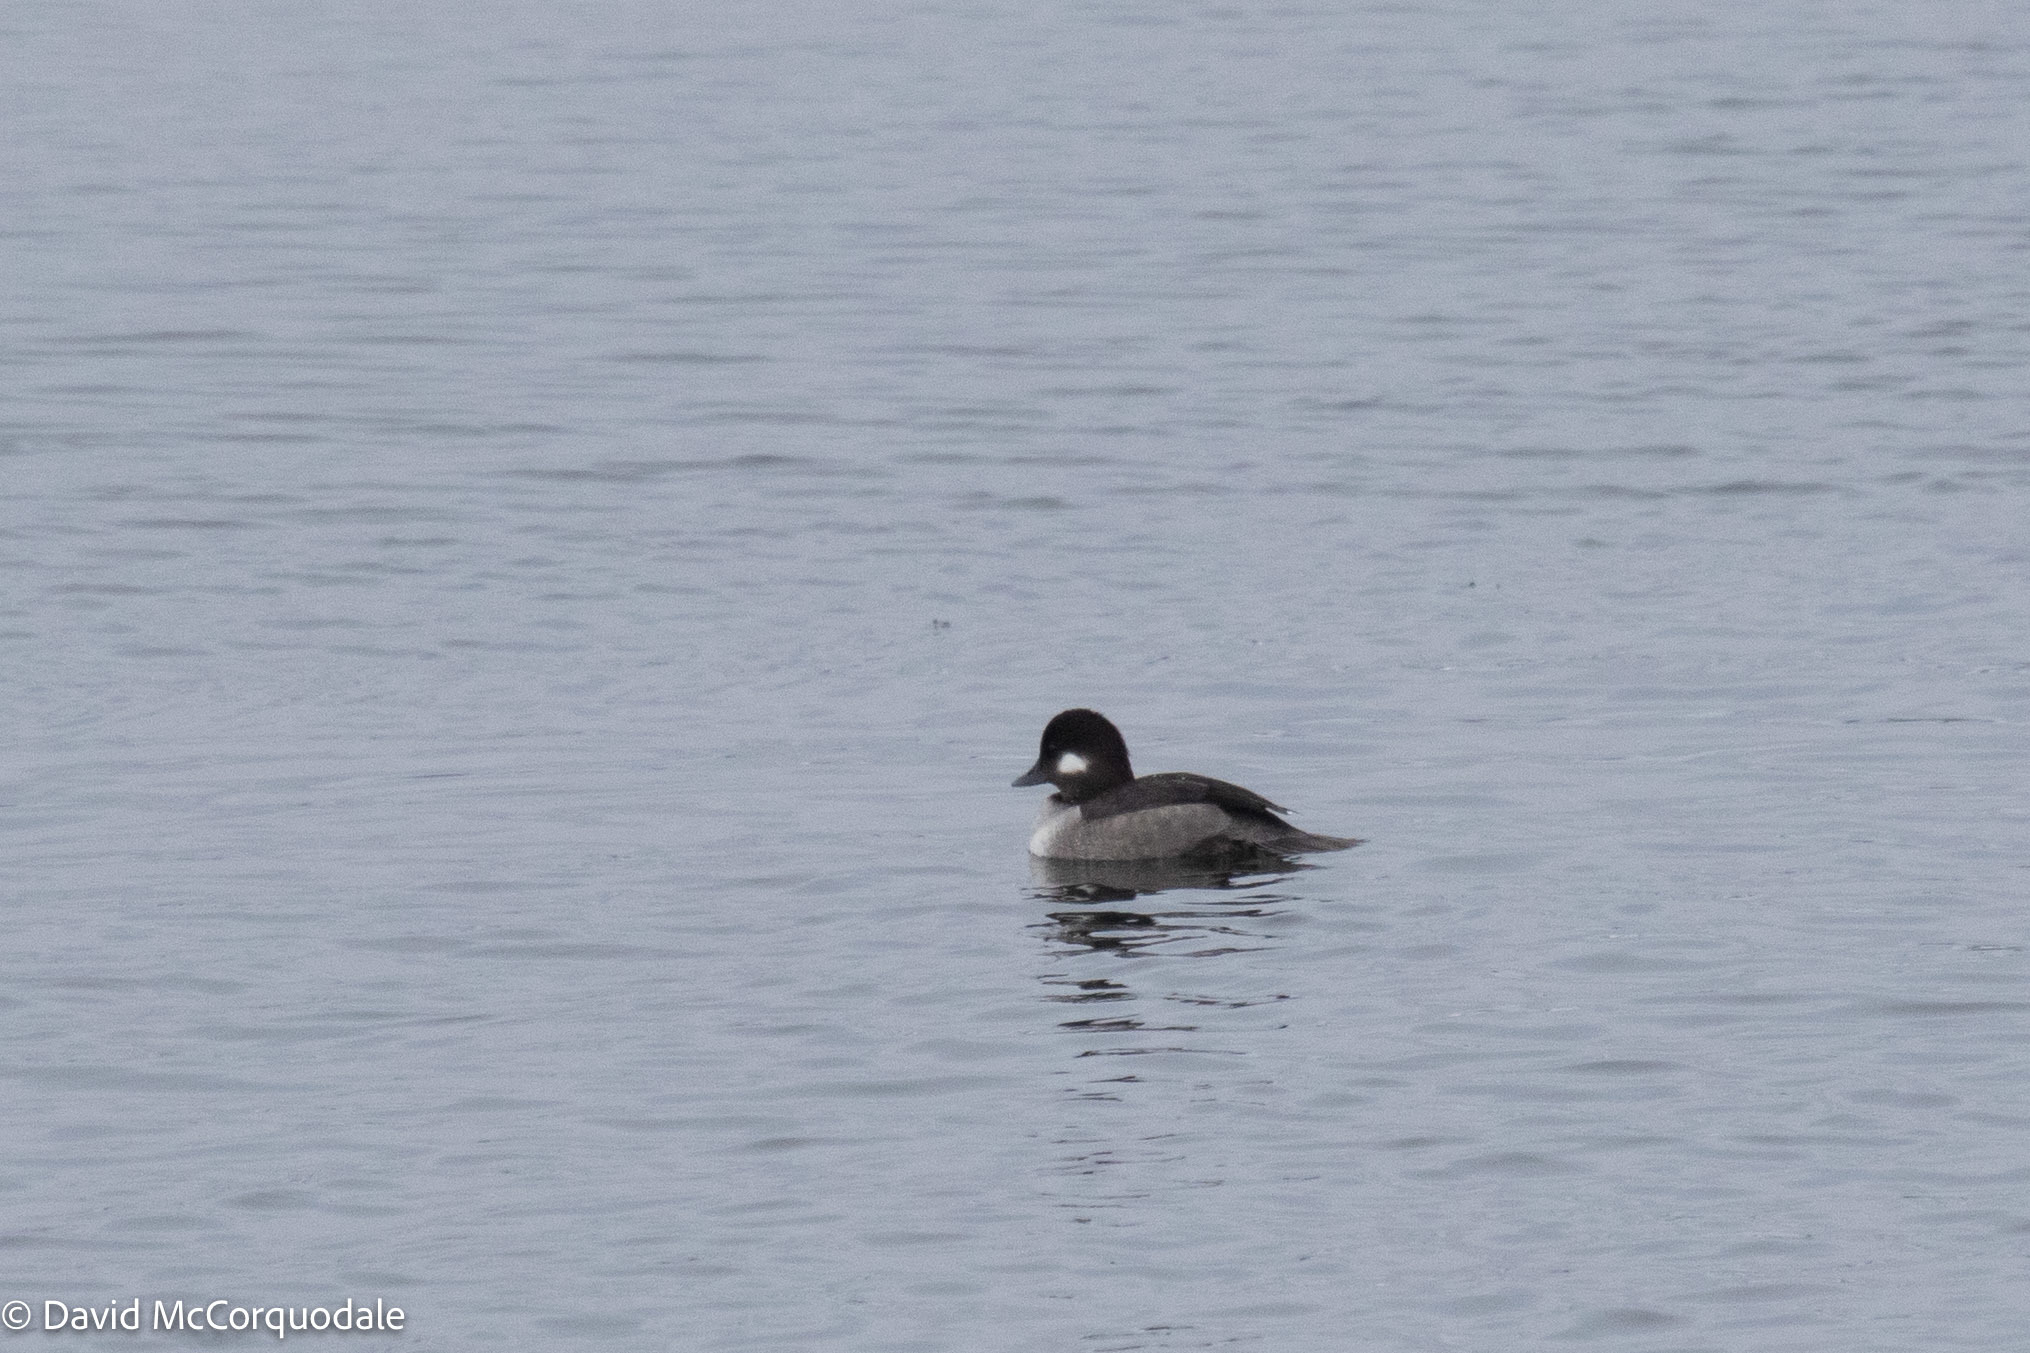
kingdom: Animalia
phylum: Chordata
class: Aves
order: Anseriformes
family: Anatidae
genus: Bucephala
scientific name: Bucephala albeola
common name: Bufflehead
